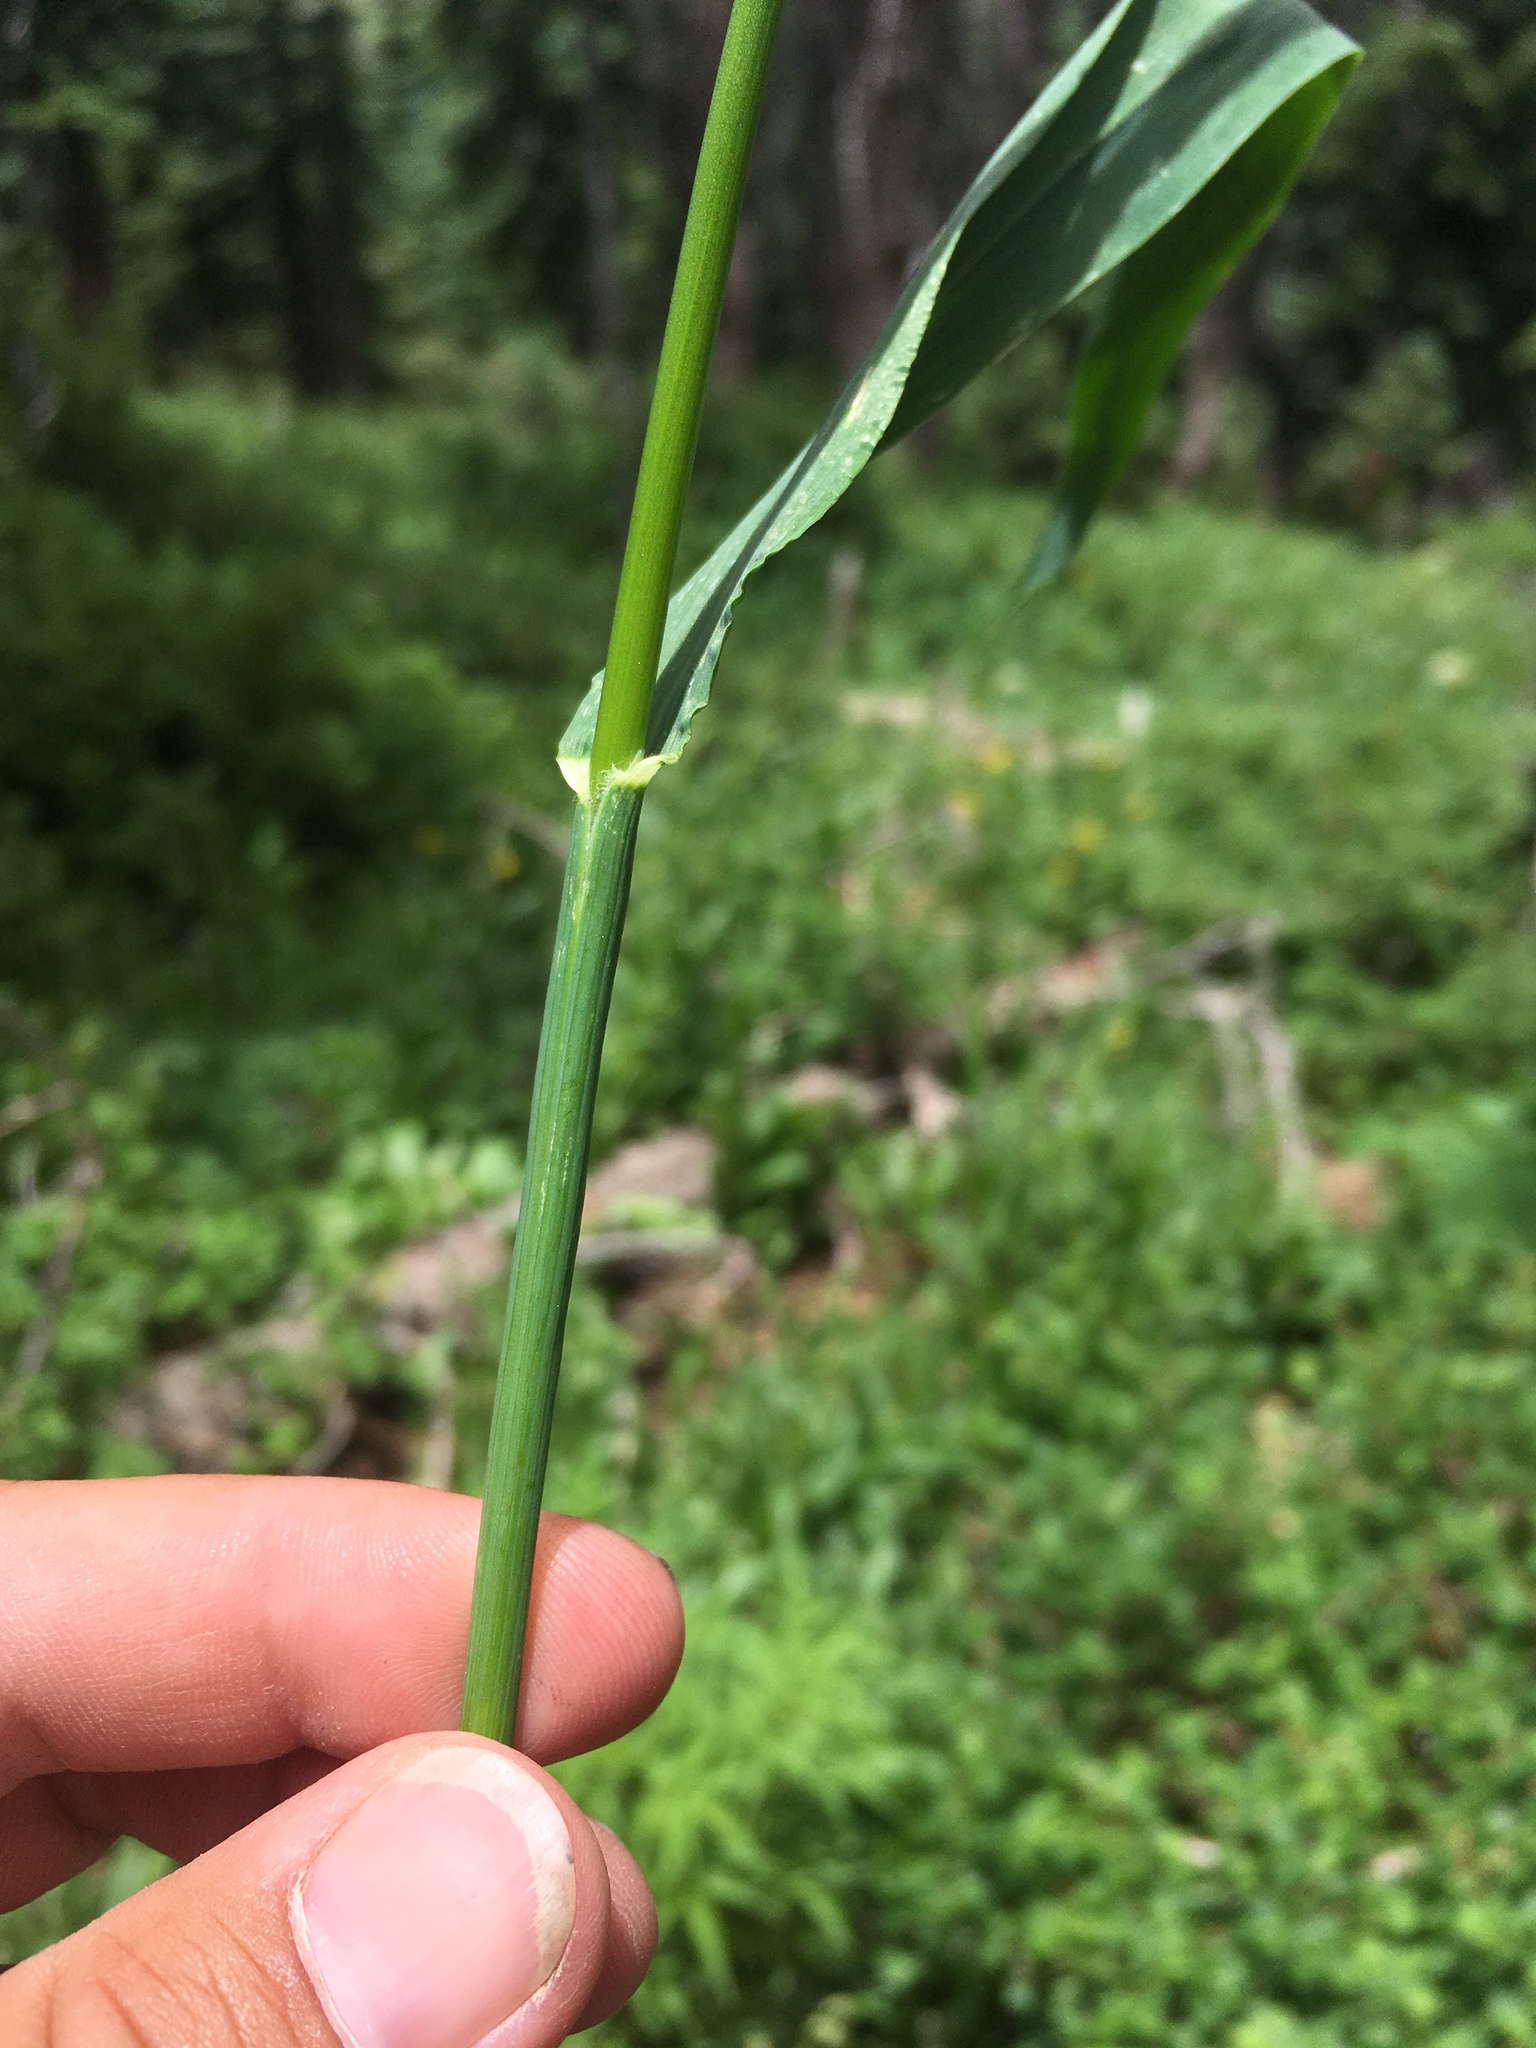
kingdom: Plantae
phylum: Tracheophyta
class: Liliopsida
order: Poales
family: Poaceae
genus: Bromus
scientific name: Bromus ciliatus
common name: Fringe brome
